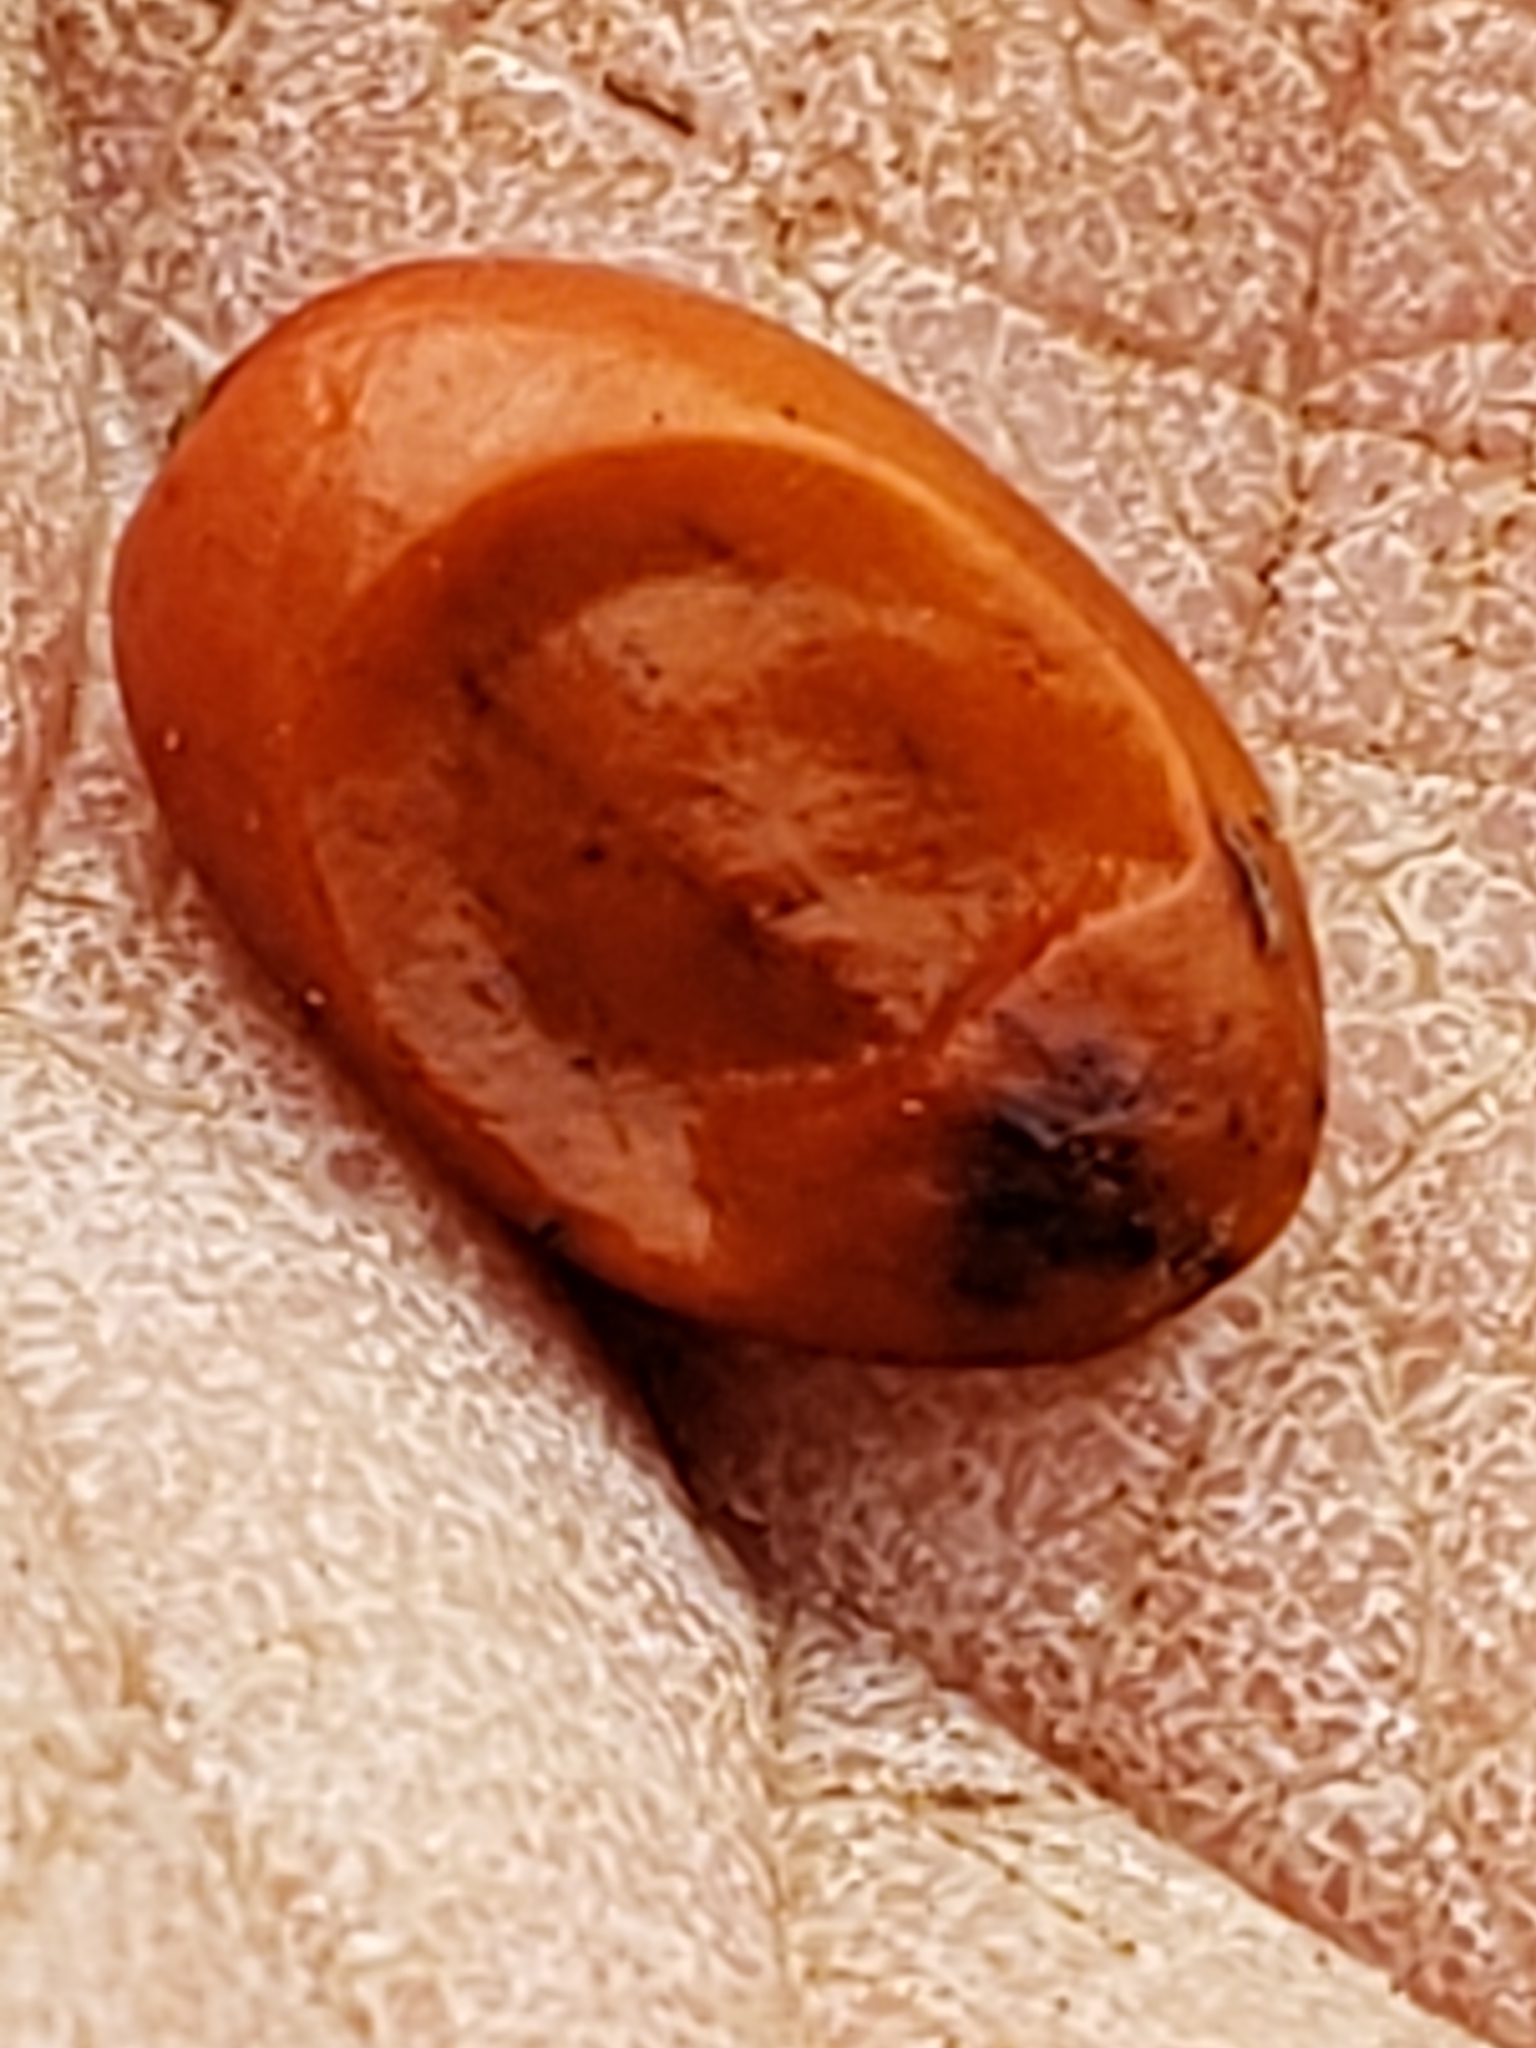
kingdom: Plantae
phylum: Tracheophyta
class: Magnoliopsida
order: Ranunculales
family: Berberidaceae
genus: Berberis
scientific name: Berberis thunbergii
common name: Japanese barberry
